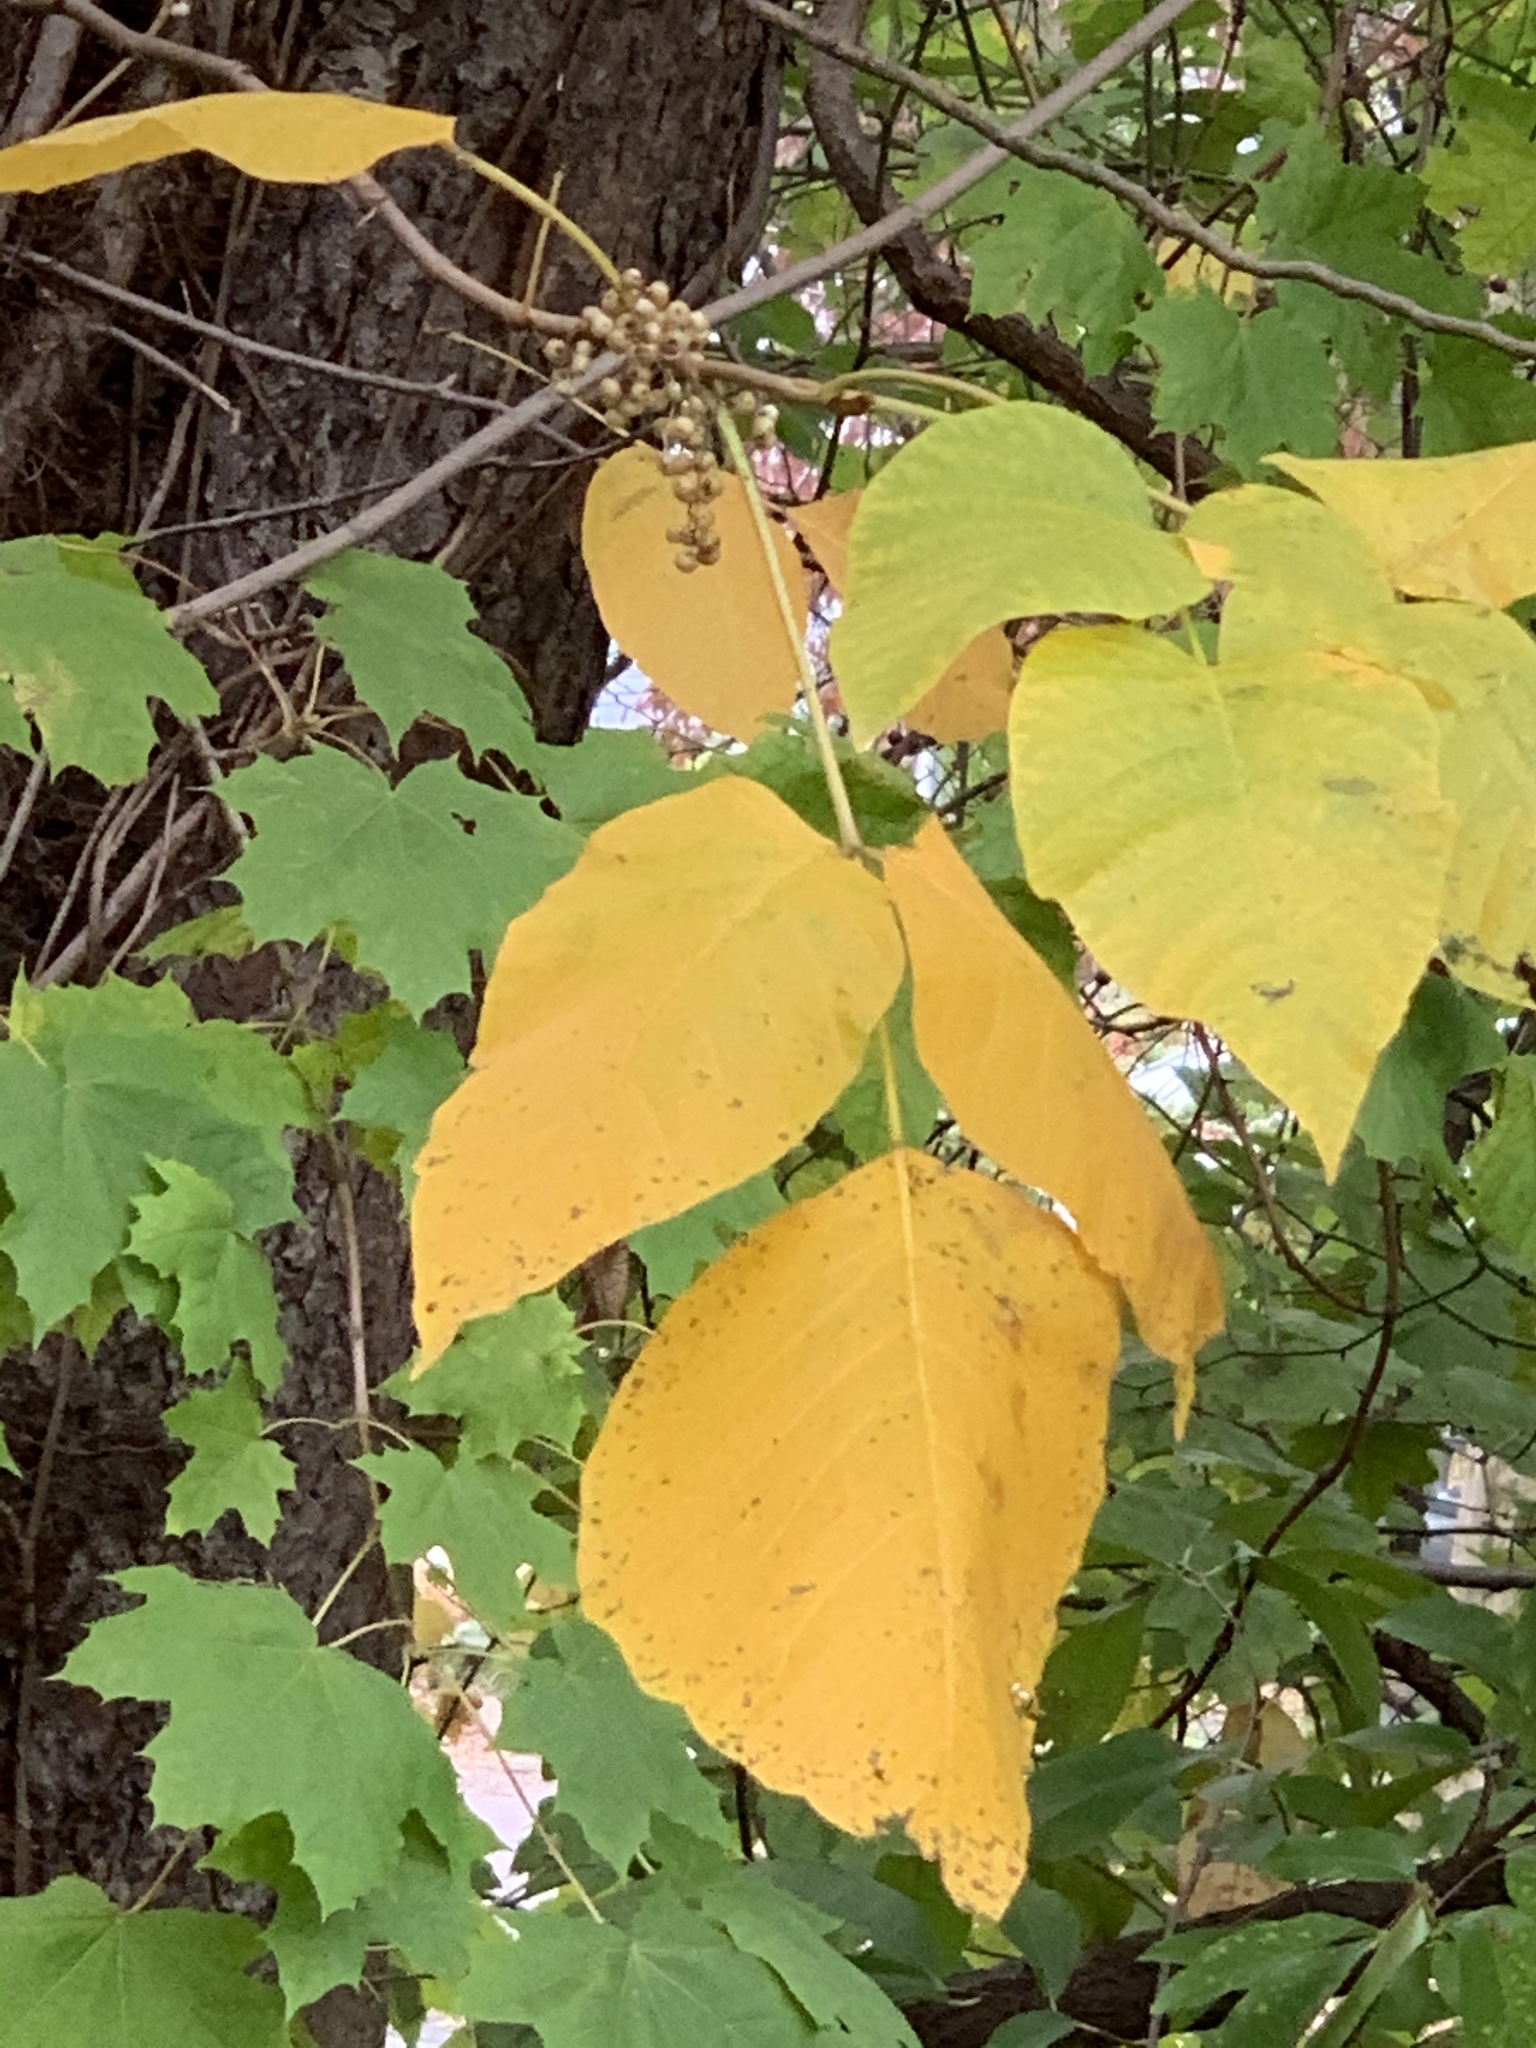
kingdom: Plantae
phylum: Tracheophyta
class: Magnoliopsida
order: Sapindales
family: Anacardiaceae
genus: Toxicodendron
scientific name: Toxicodendron radicans
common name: Poison ivy
